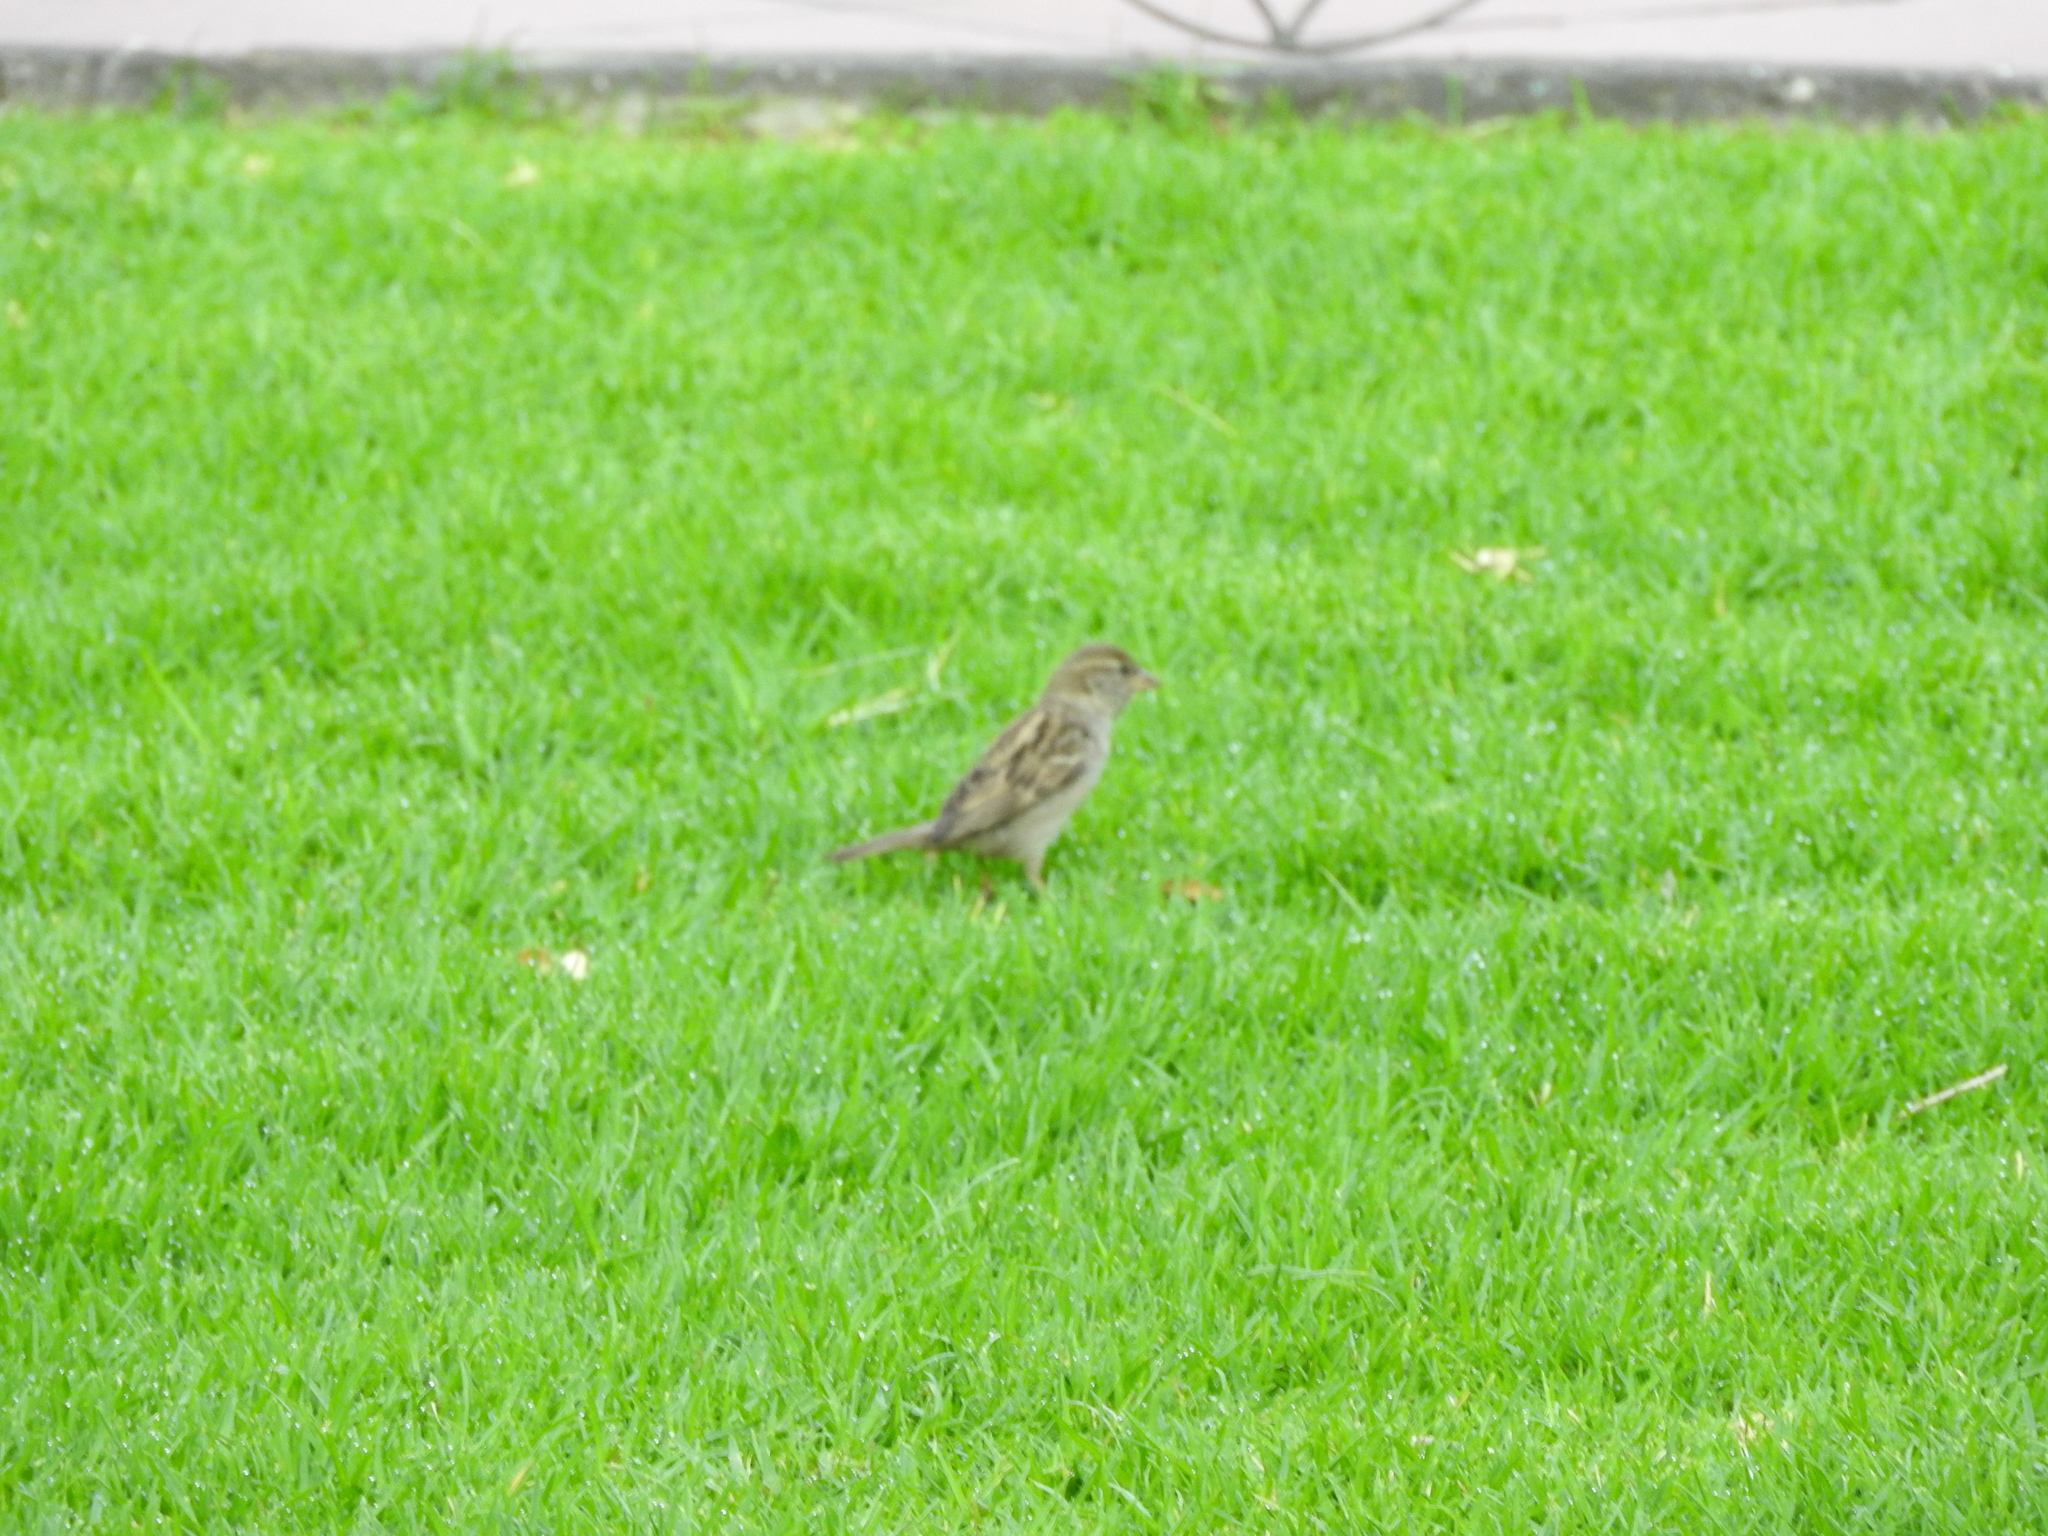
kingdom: Animalia
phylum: Chordata
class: Aves
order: Passeriformes
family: Passeridae
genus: Passer
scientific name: Passer domesticus
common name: House sparrow
